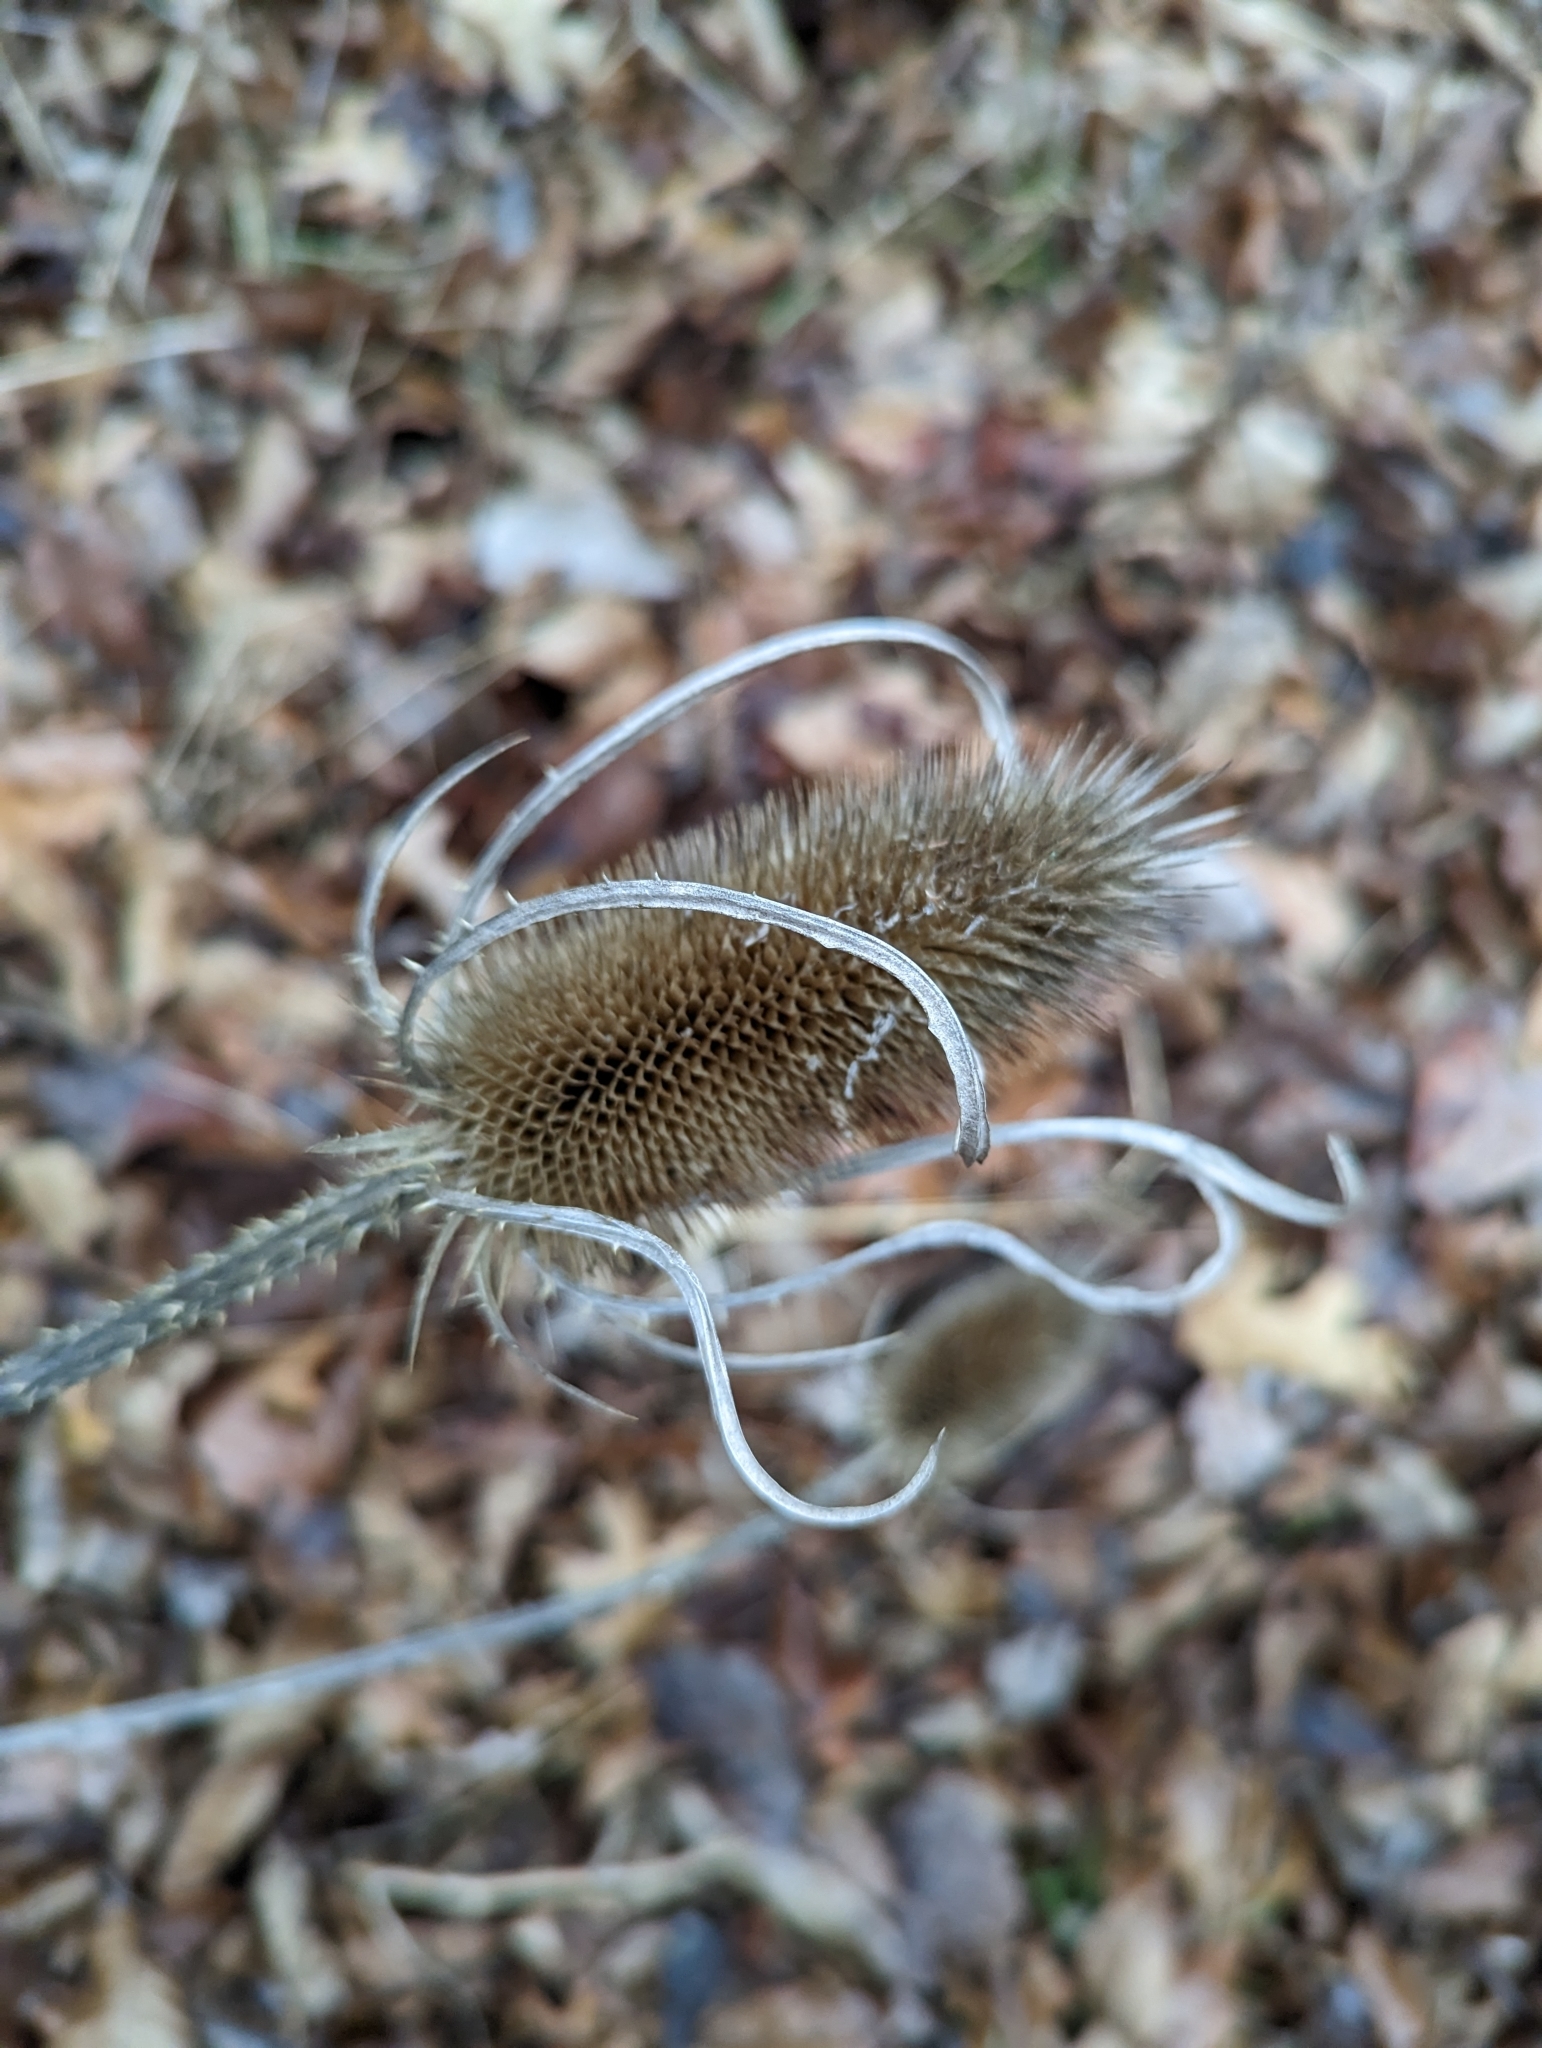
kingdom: Plantae
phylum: Tracheophyta
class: Magnoliopsida
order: Dipsacales
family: Caprifoliaceae
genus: Dipsacus
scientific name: Dipsacus fullonum
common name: Teasel
